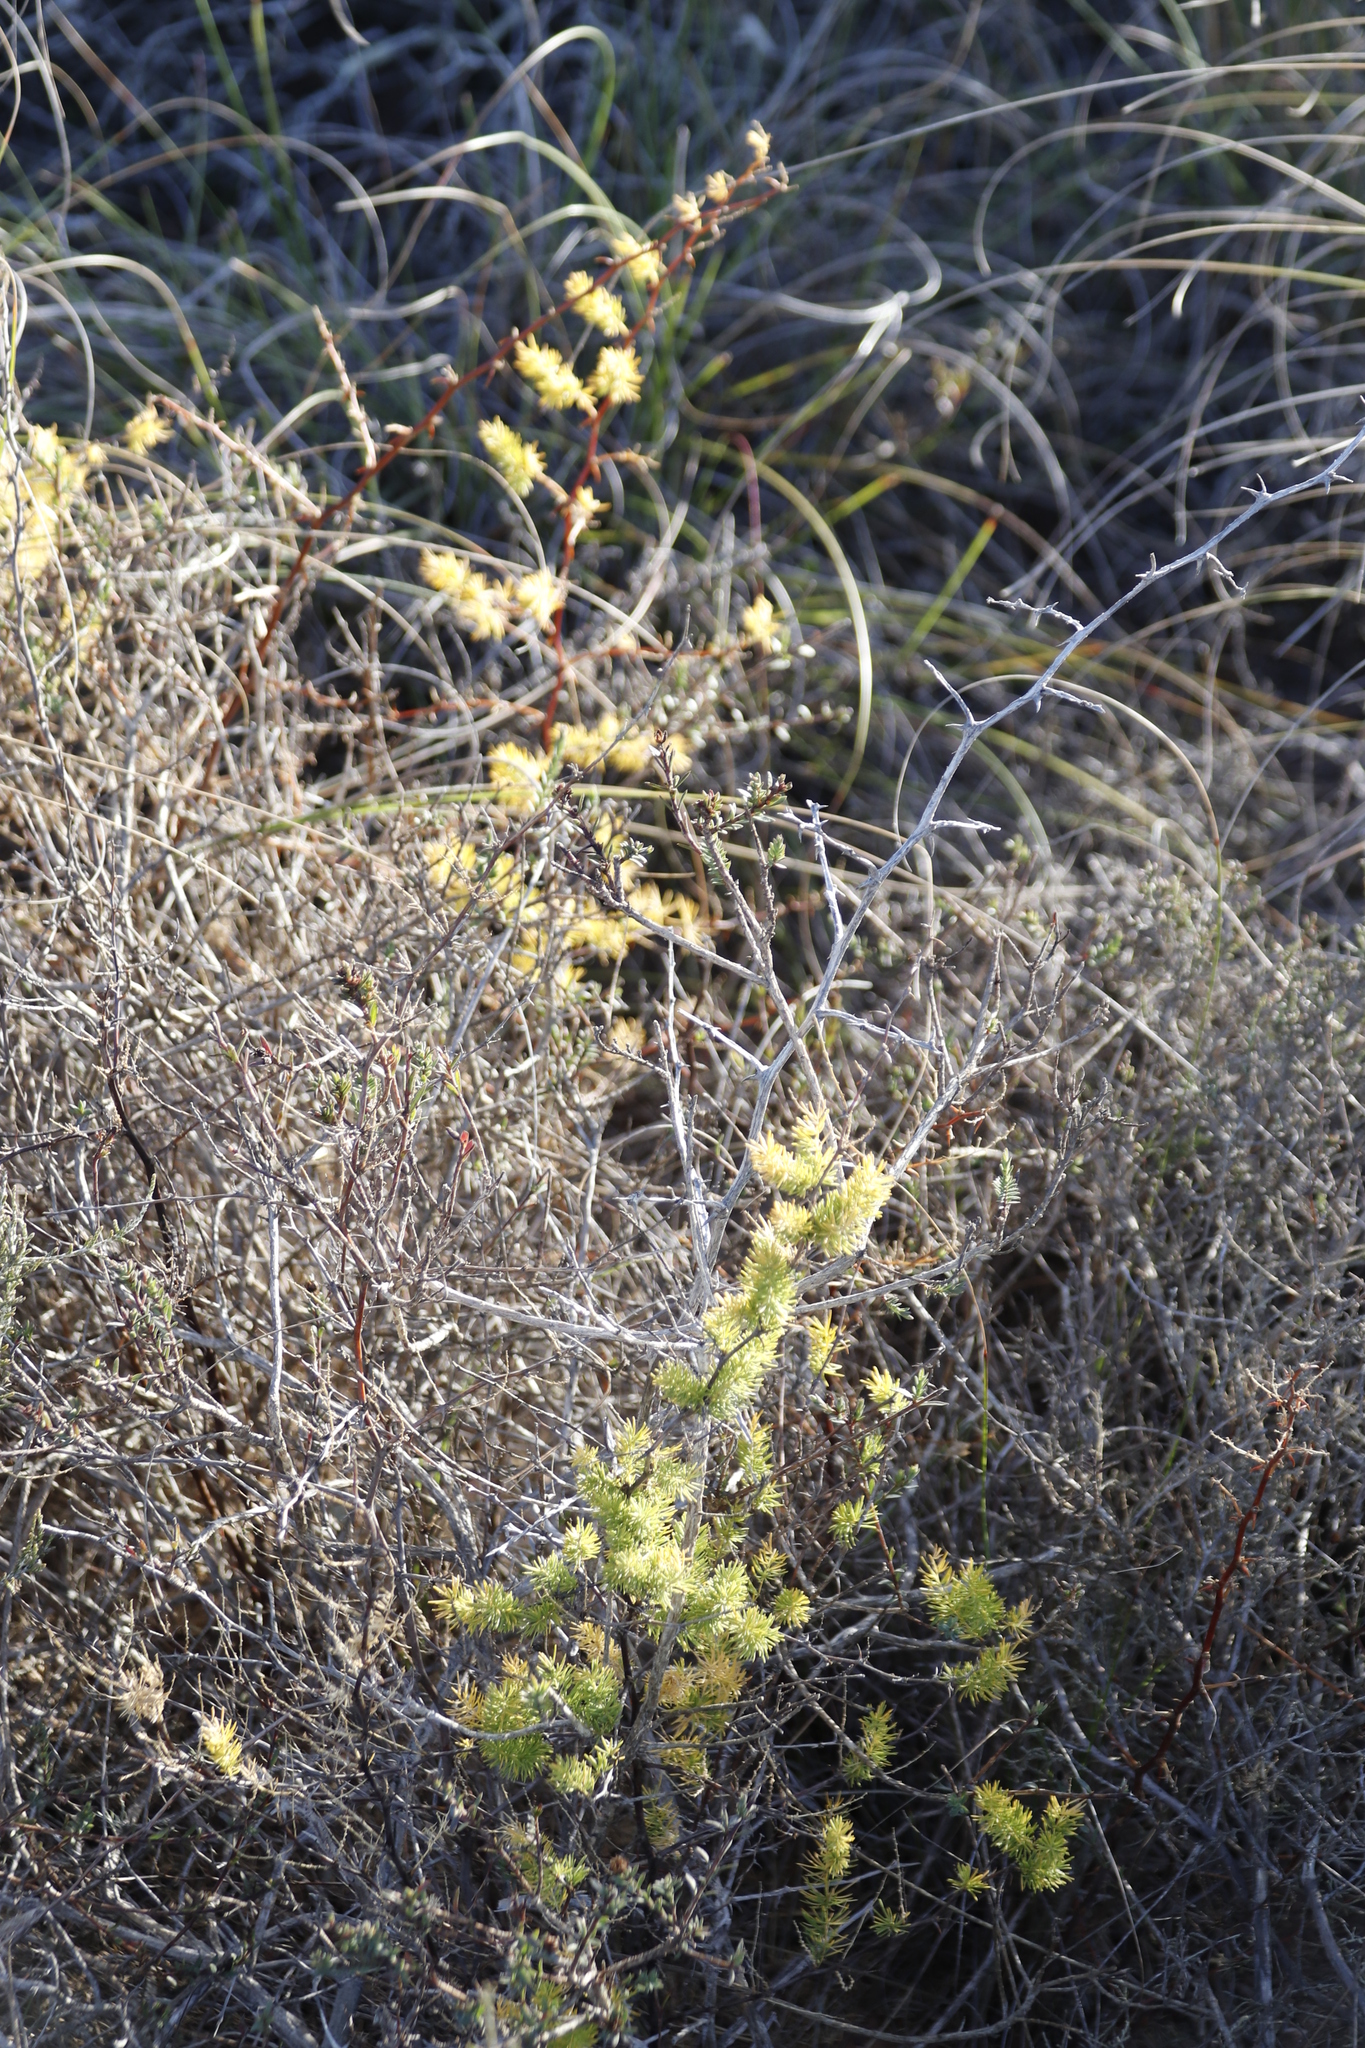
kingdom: Plantae
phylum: Tracheophyta
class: Liliopsida
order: Asparagales
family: Asparagaceae
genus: Asparagus
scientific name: Asparagus rubicundus
